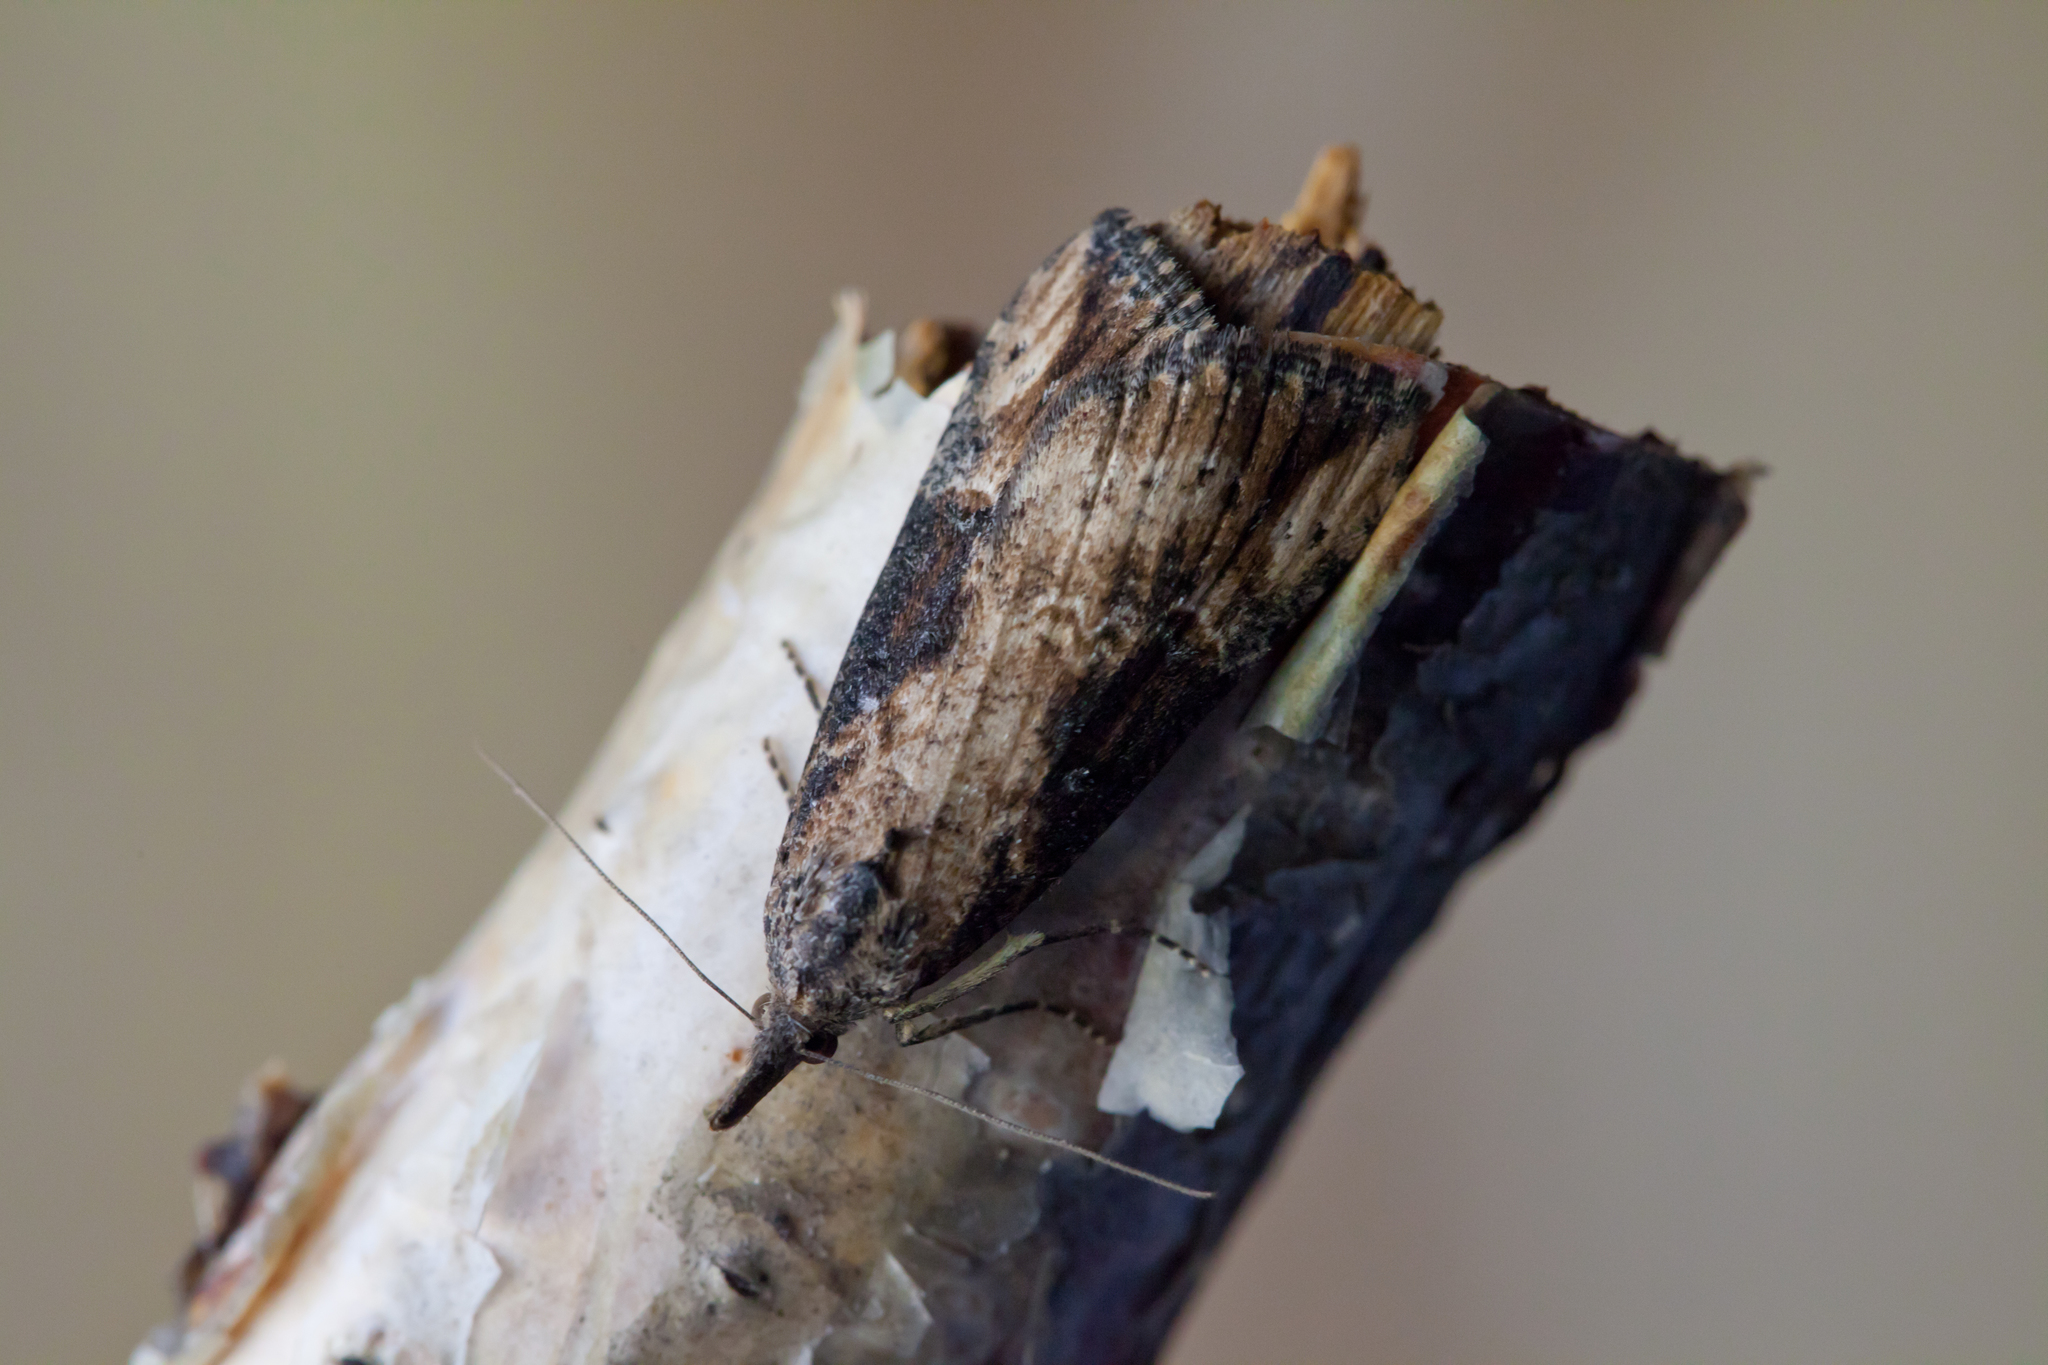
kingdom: Animalia
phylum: Arthropoda
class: Insecta
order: Lepidoptera
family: Erebidae
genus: Hypena
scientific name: Hypena obesalis
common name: Paignton snout
